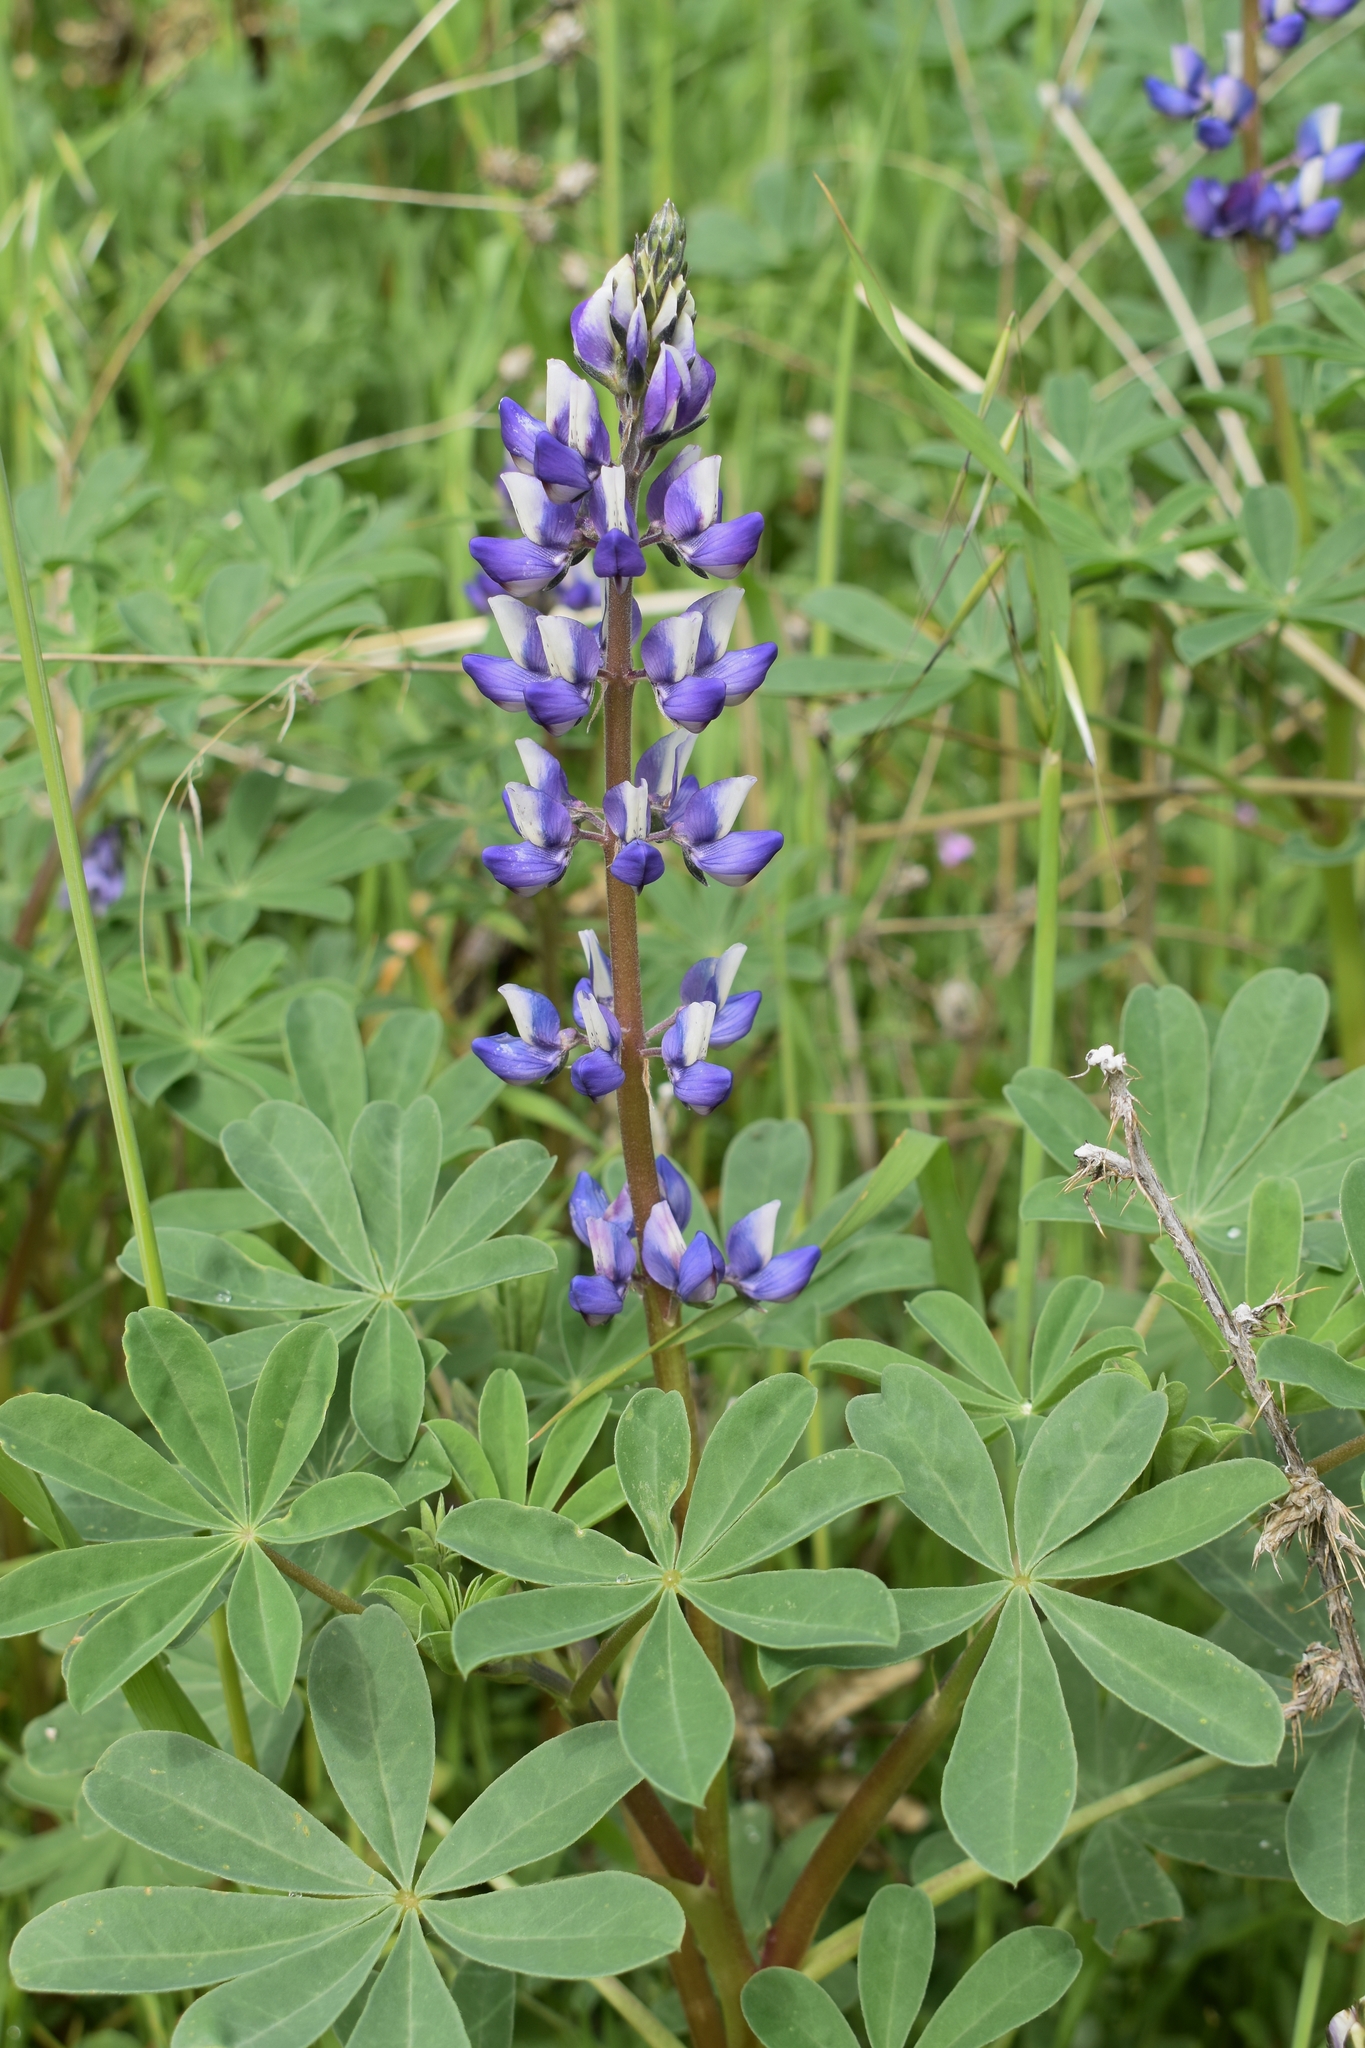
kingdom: Plantae
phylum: Tracheophyta
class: Magnoliopsida
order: Fabales
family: Fabaceae
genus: Lupinus
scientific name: Lupinus succulentus
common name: Arroyo lupine
